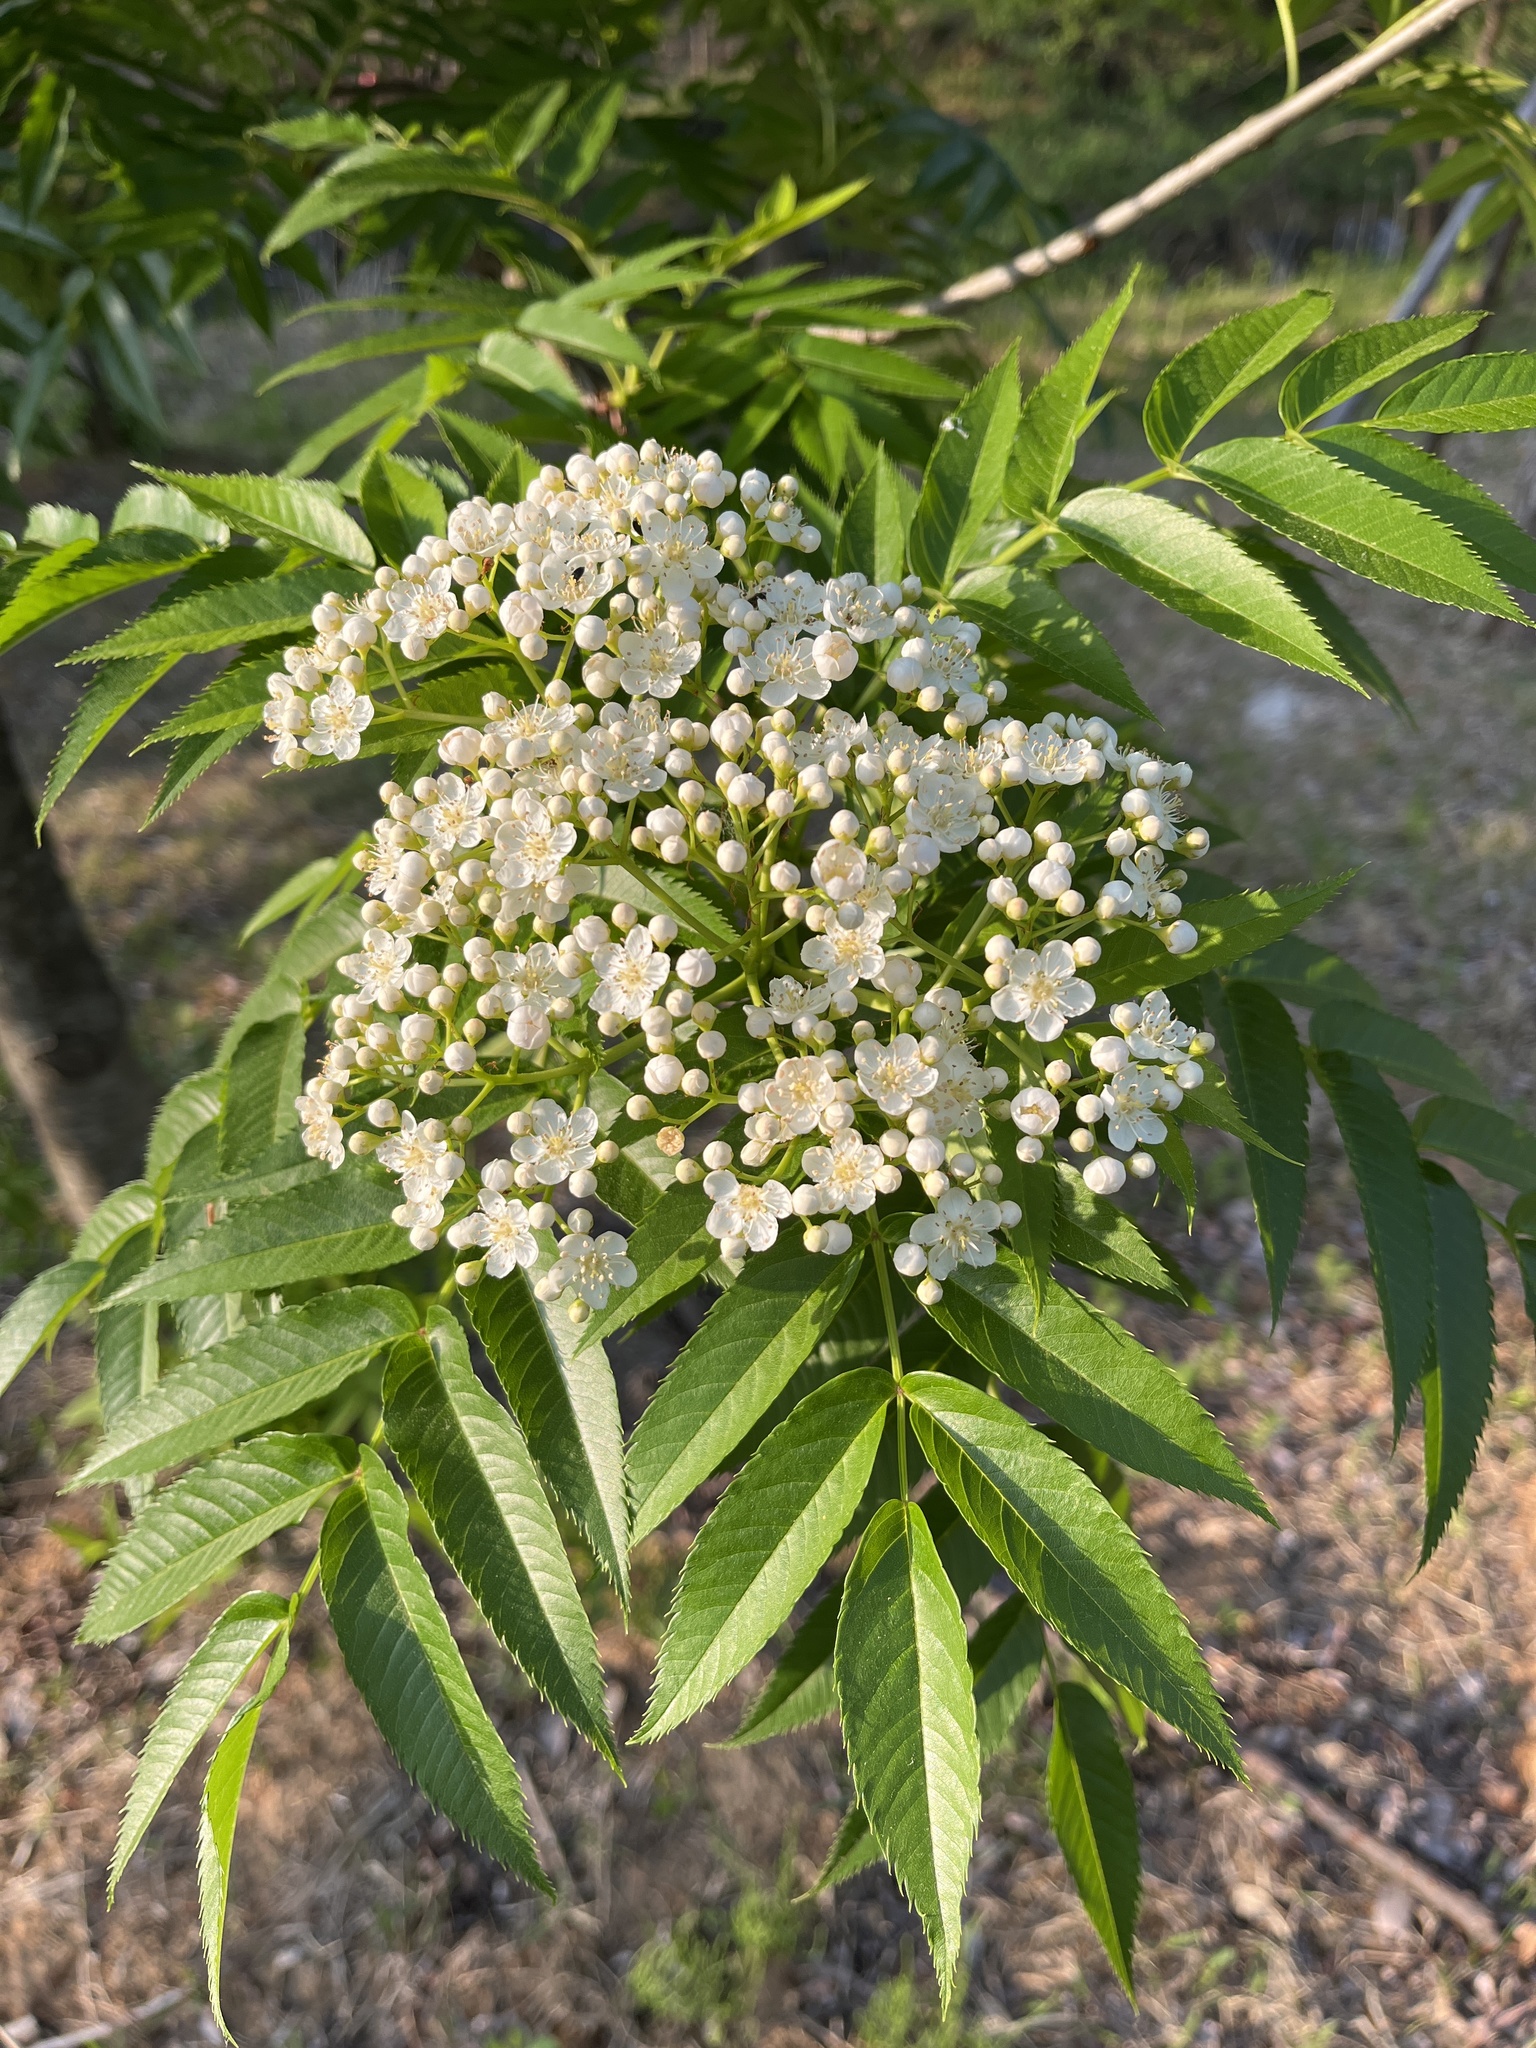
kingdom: Plantae
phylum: Tracheophyta
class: Magnoliopsida
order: Rosales
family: Rosaceae
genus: Sorbus
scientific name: Sorbus commixta
